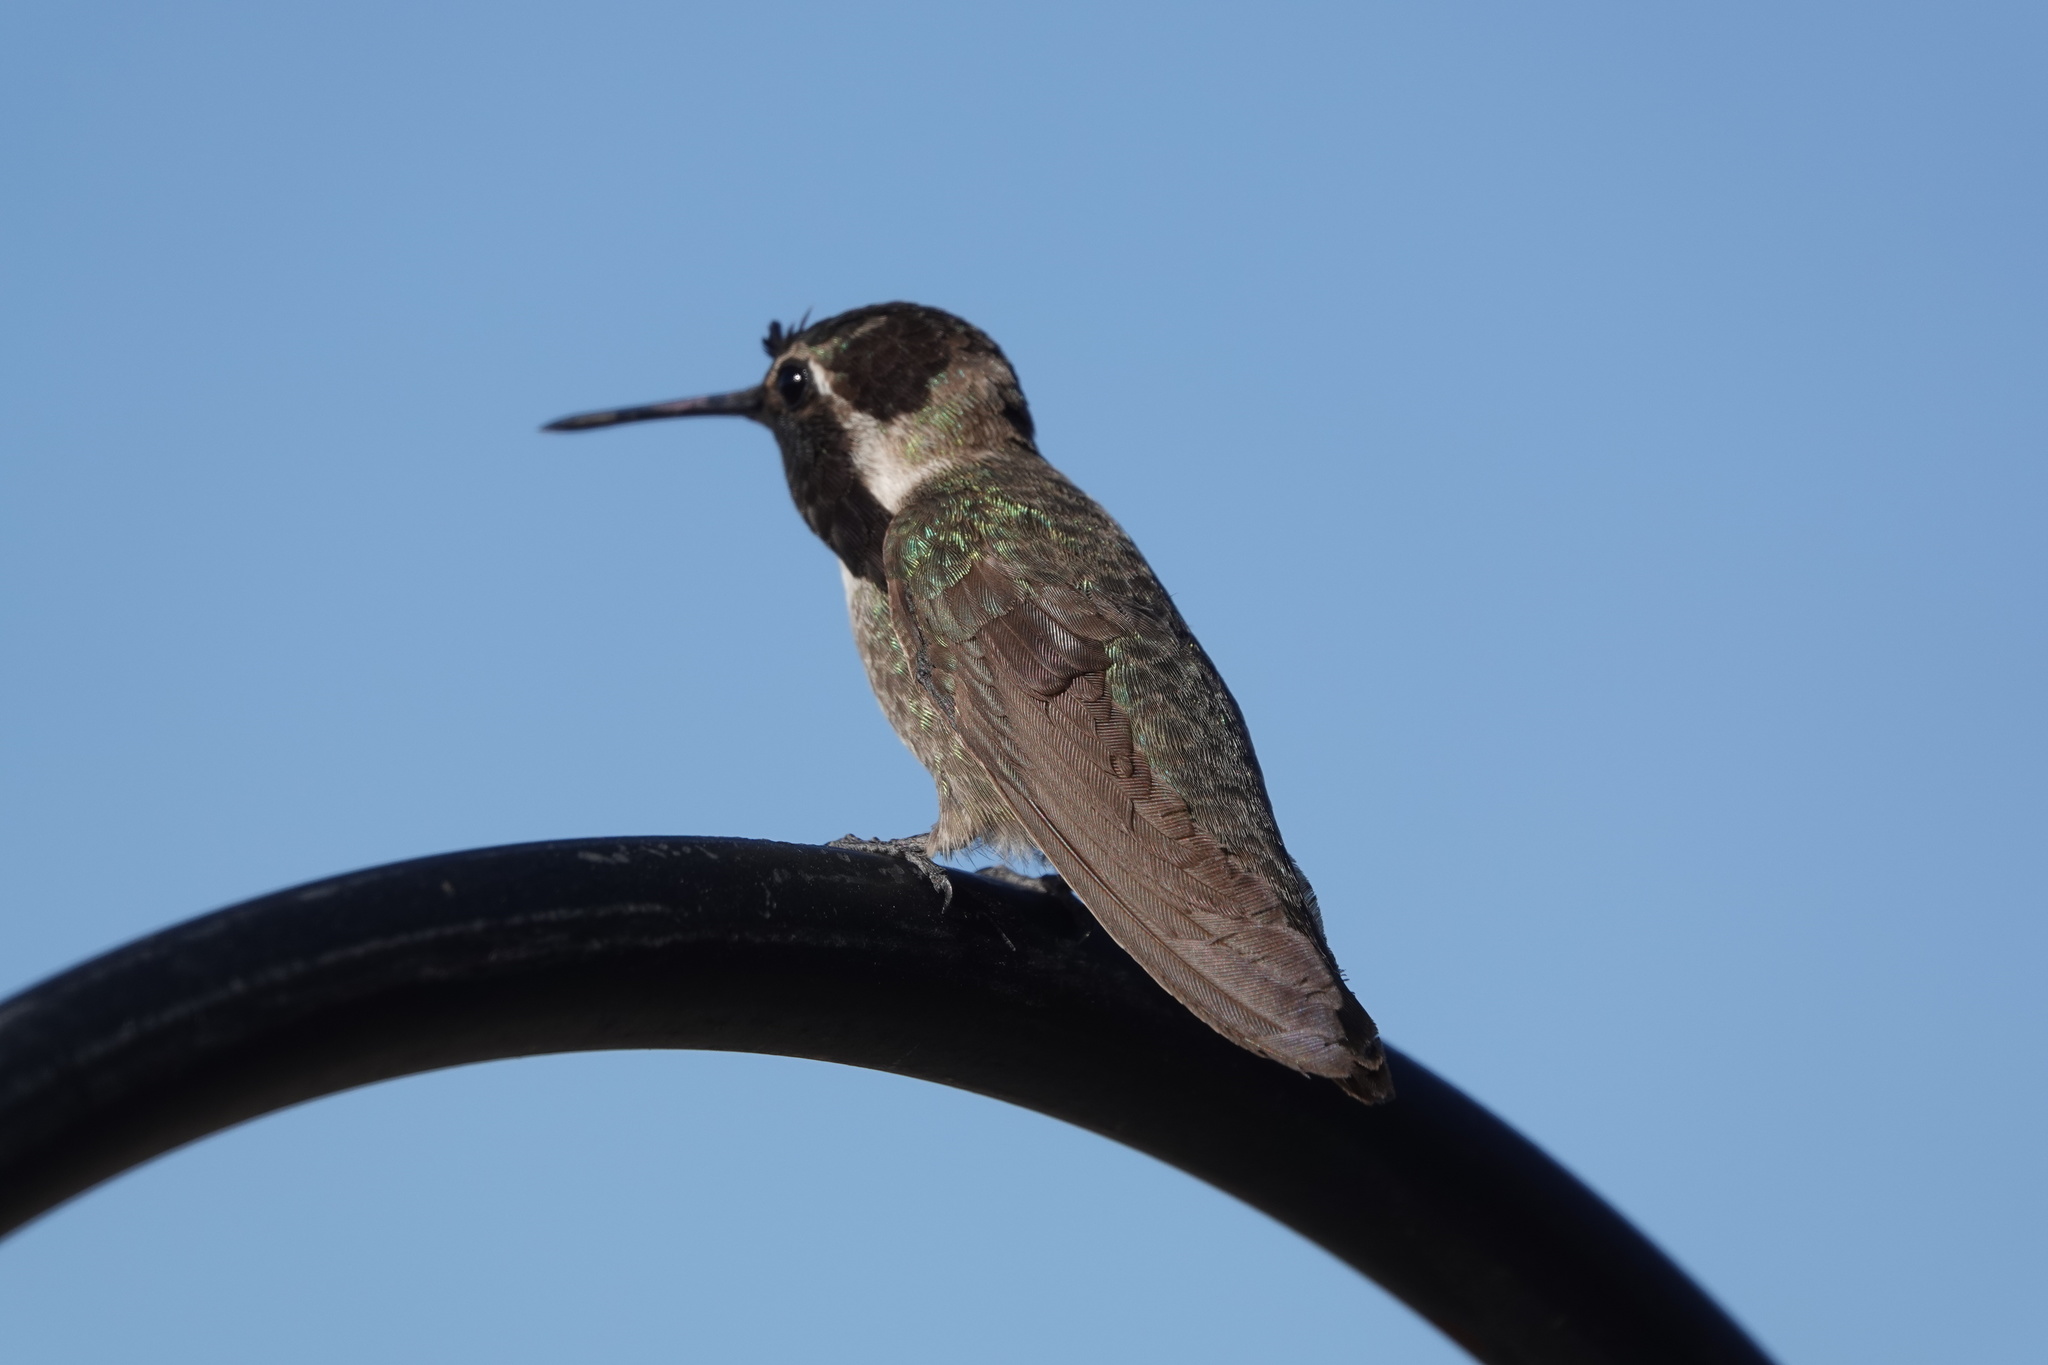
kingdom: Animalia
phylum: Chordata
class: Aves
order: Apodiformes
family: Trochilidae
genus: Calypte
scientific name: Calypte costae
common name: Costa's hummingbird
